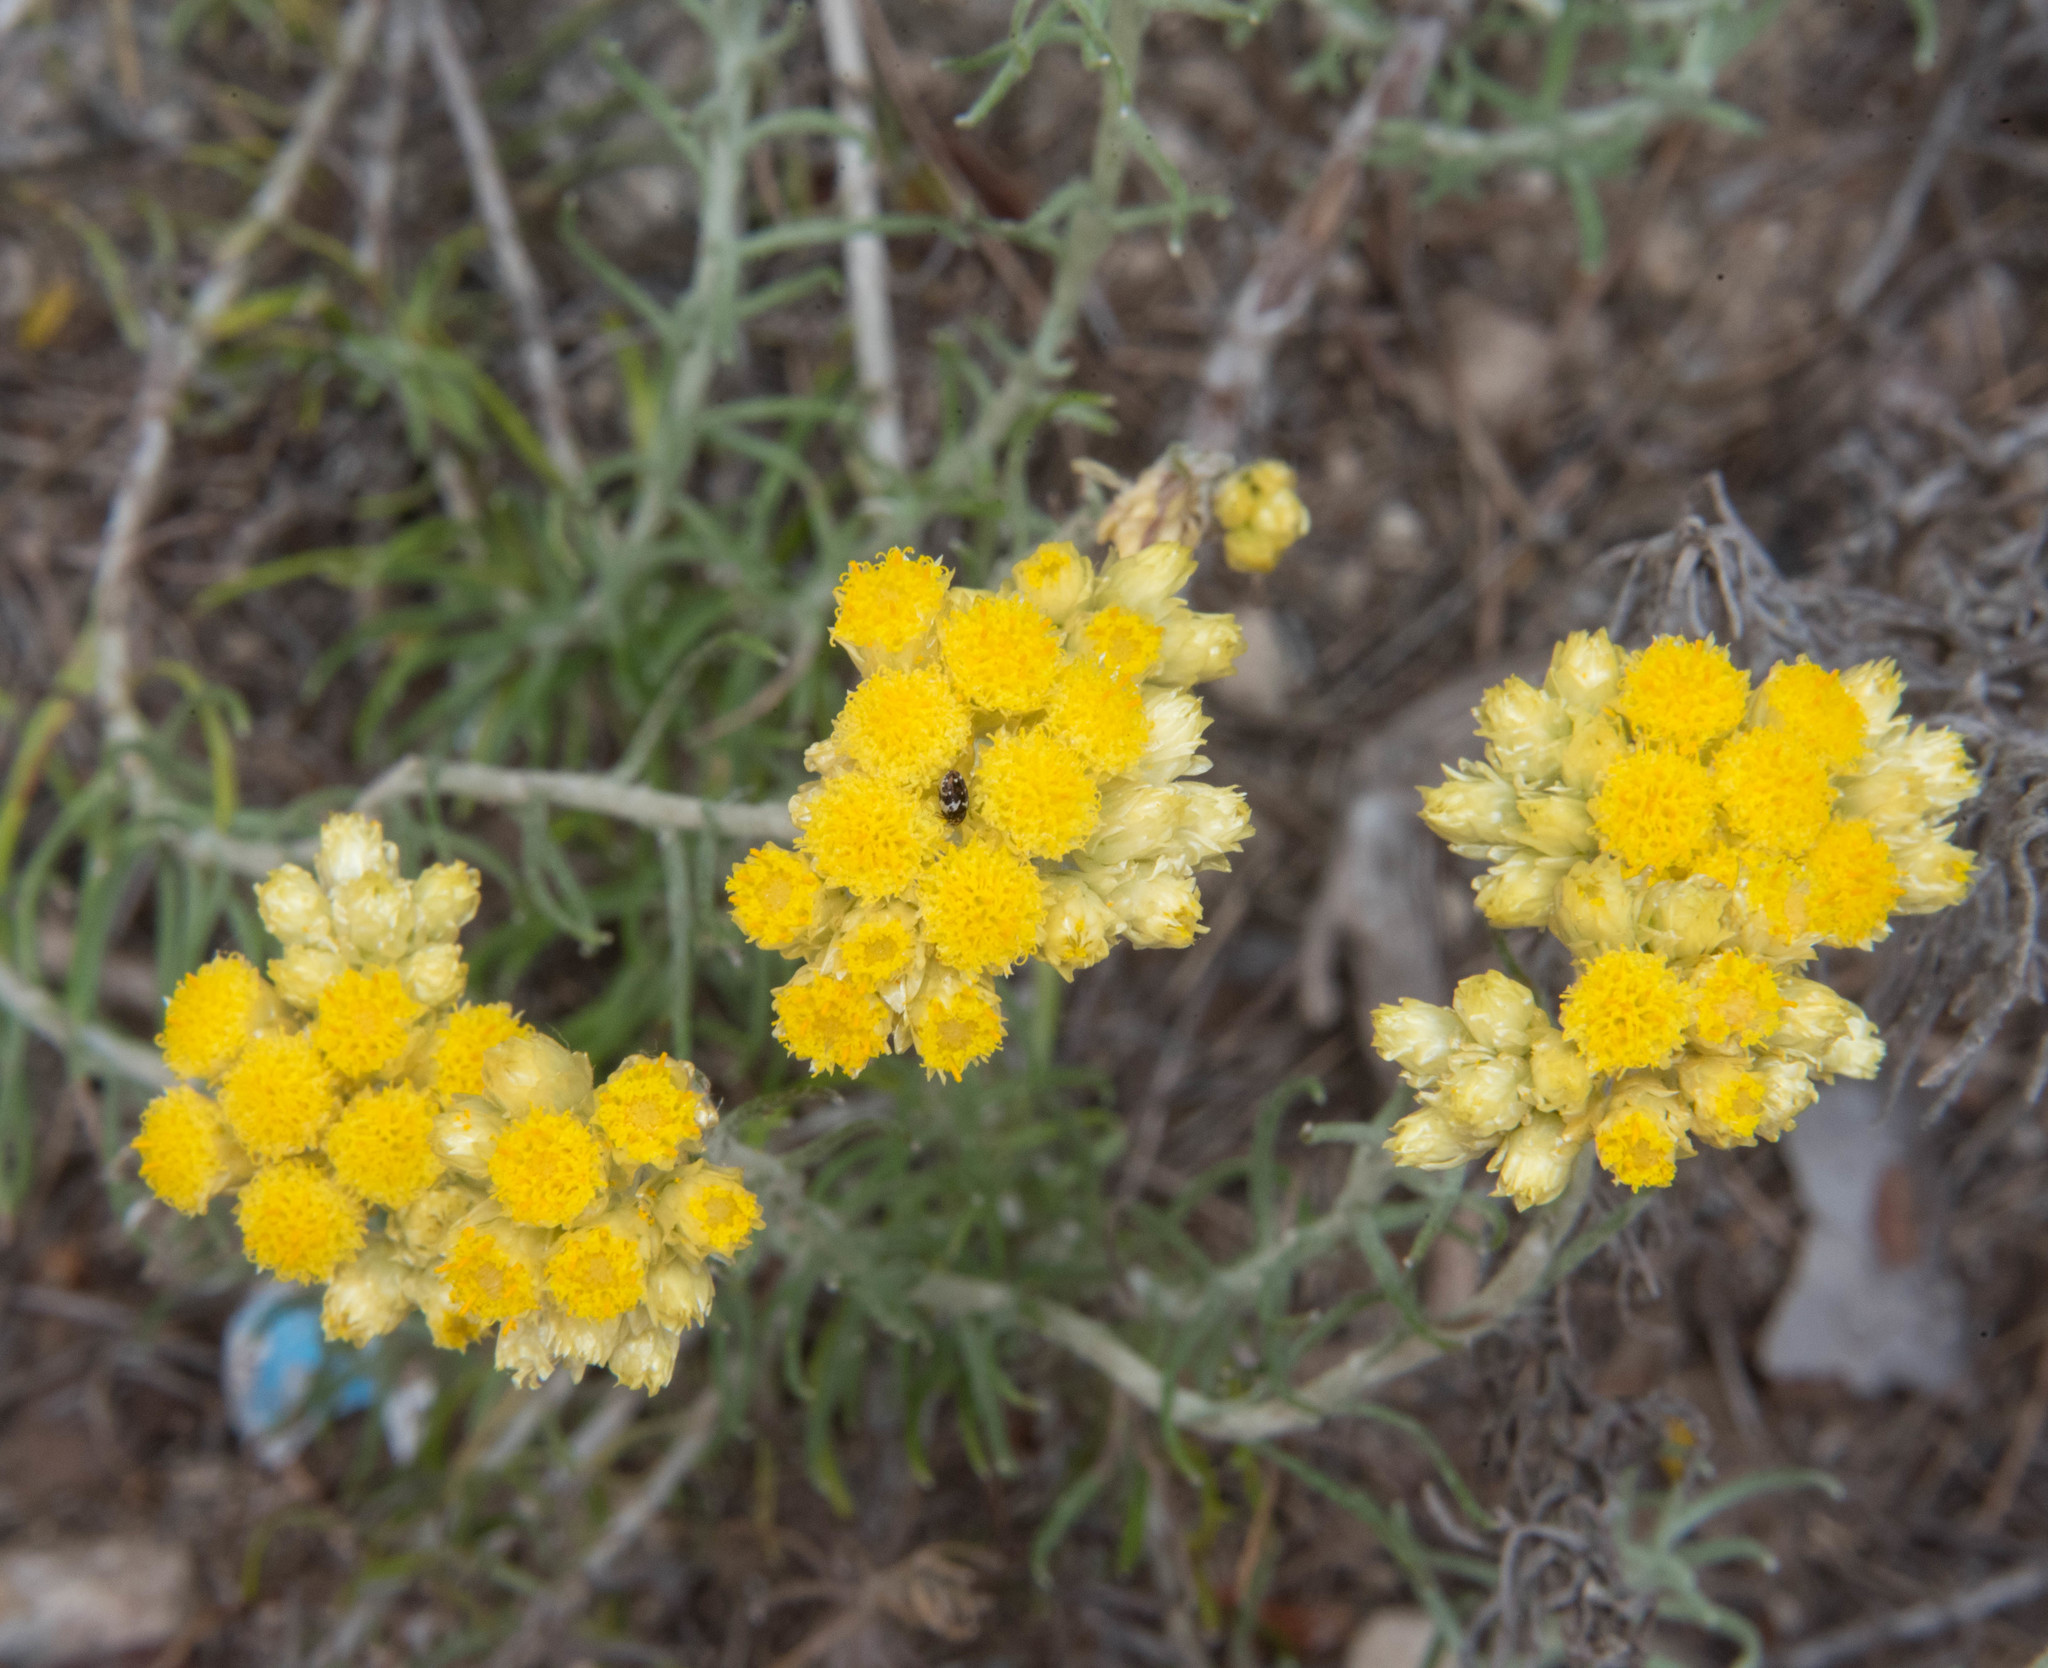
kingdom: Plantae
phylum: Tracheophyta
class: Magnoliopsida
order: Asterales
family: Asteraceae
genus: Helichrysum
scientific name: Helichrysum stoechas
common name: Goldilocks
